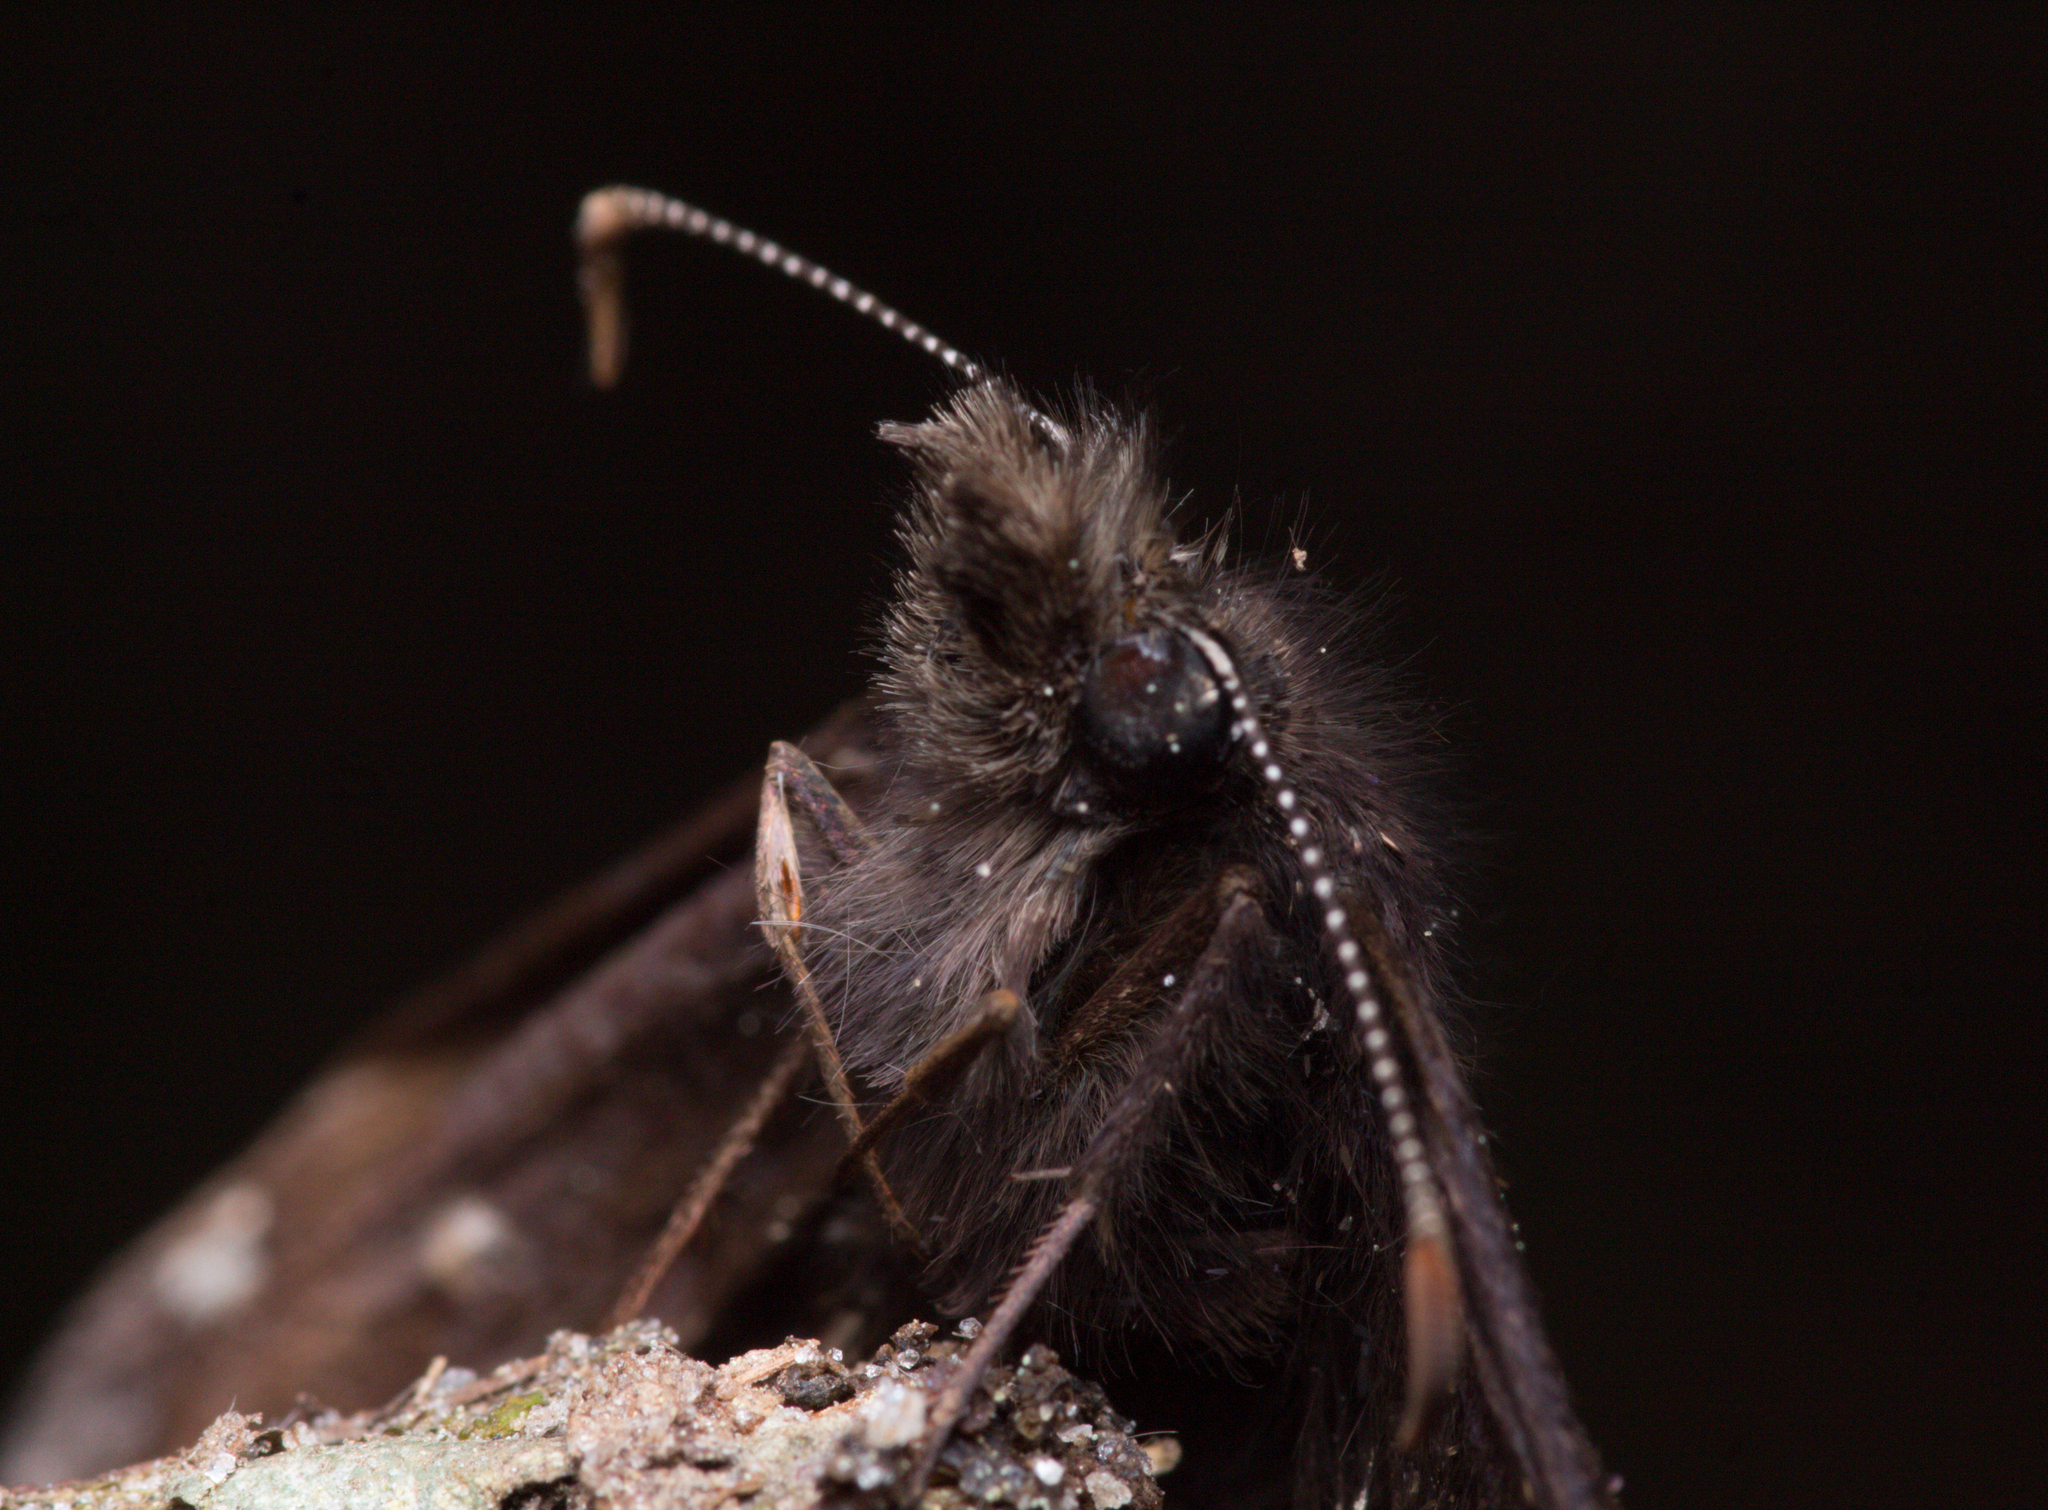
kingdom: Animalia
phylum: Arthropoda
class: Insecta
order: Lepidoptera
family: Hesperiidae
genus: Erynnis
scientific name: Erynnis juvenalis
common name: Juvenal's duskywing
